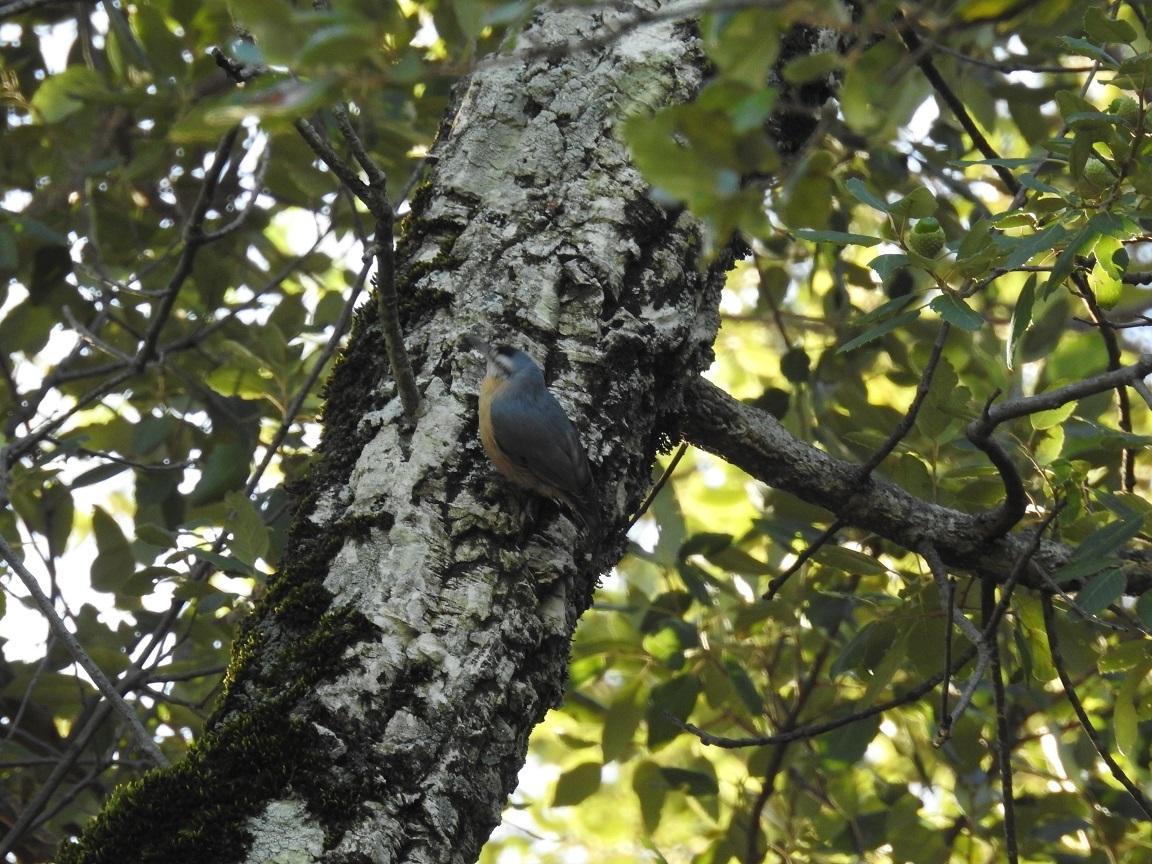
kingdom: Animalia
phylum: Chordata
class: Aves
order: Passeriformes
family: Sittidae
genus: Sitta
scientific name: Sitta ledanti
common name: Algerian nuthatch
